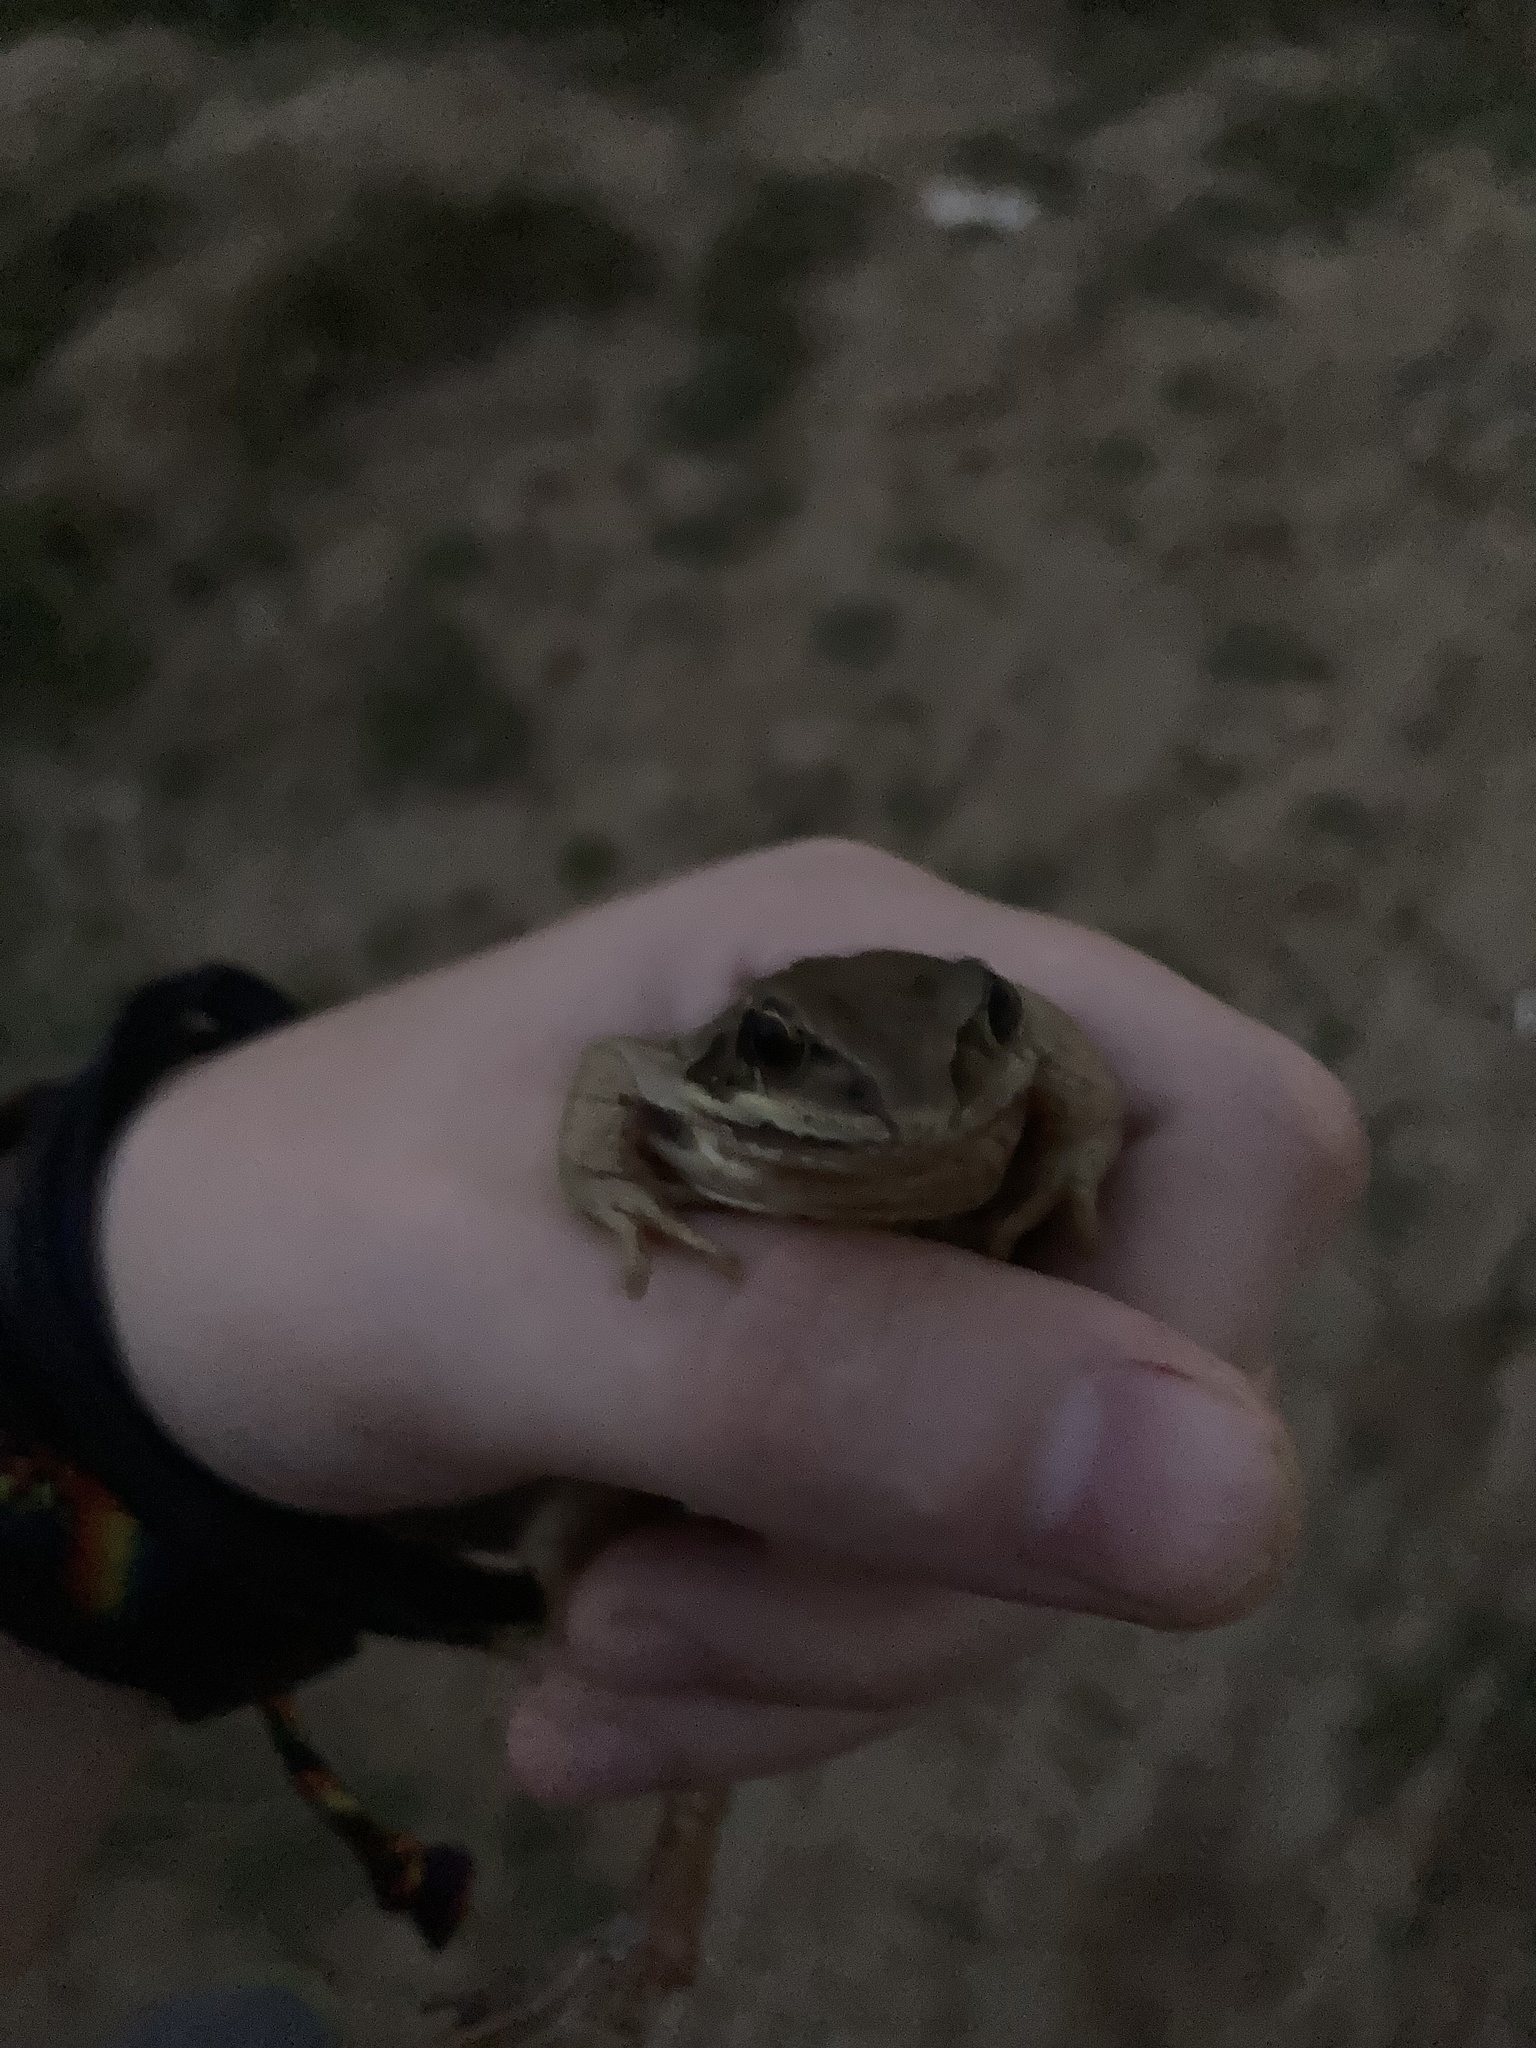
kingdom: Animalia
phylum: Chordata
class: Amphibia
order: Anura
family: Ranidae
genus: Rana
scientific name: Rana arvalis
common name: Moor frog
